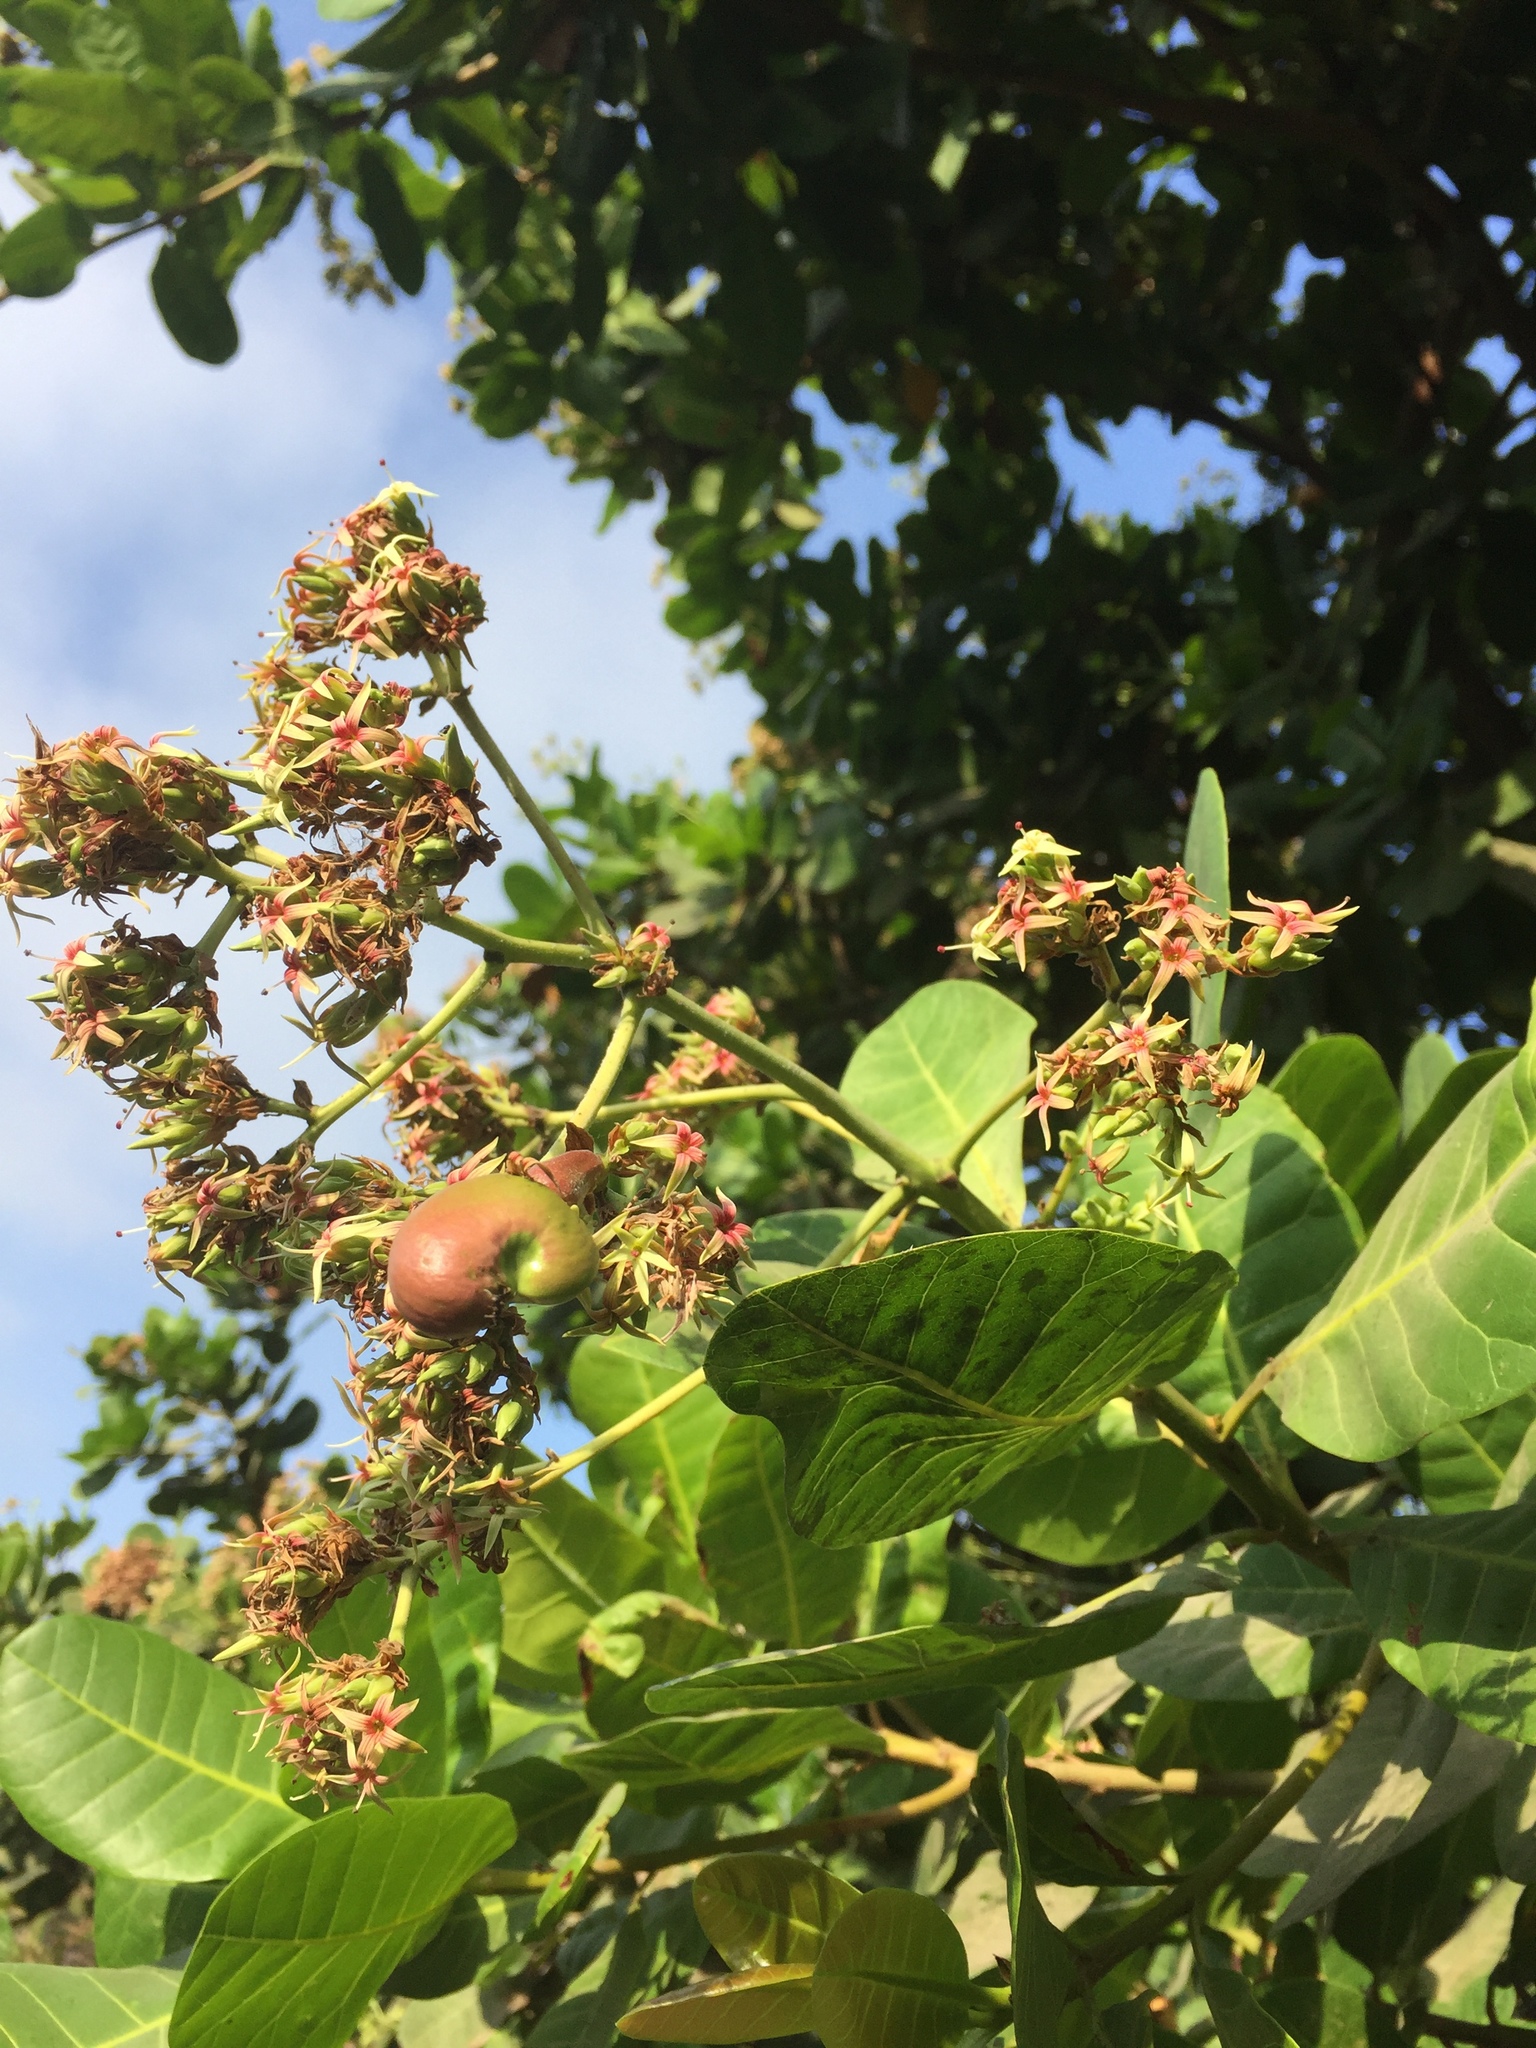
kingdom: Plantae
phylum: Tracheophyta
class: Magnoliopsida
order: Sapindales
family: Anacardiaceae
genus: Anacardium
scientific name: Anacardium occidentale
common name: Cashew
